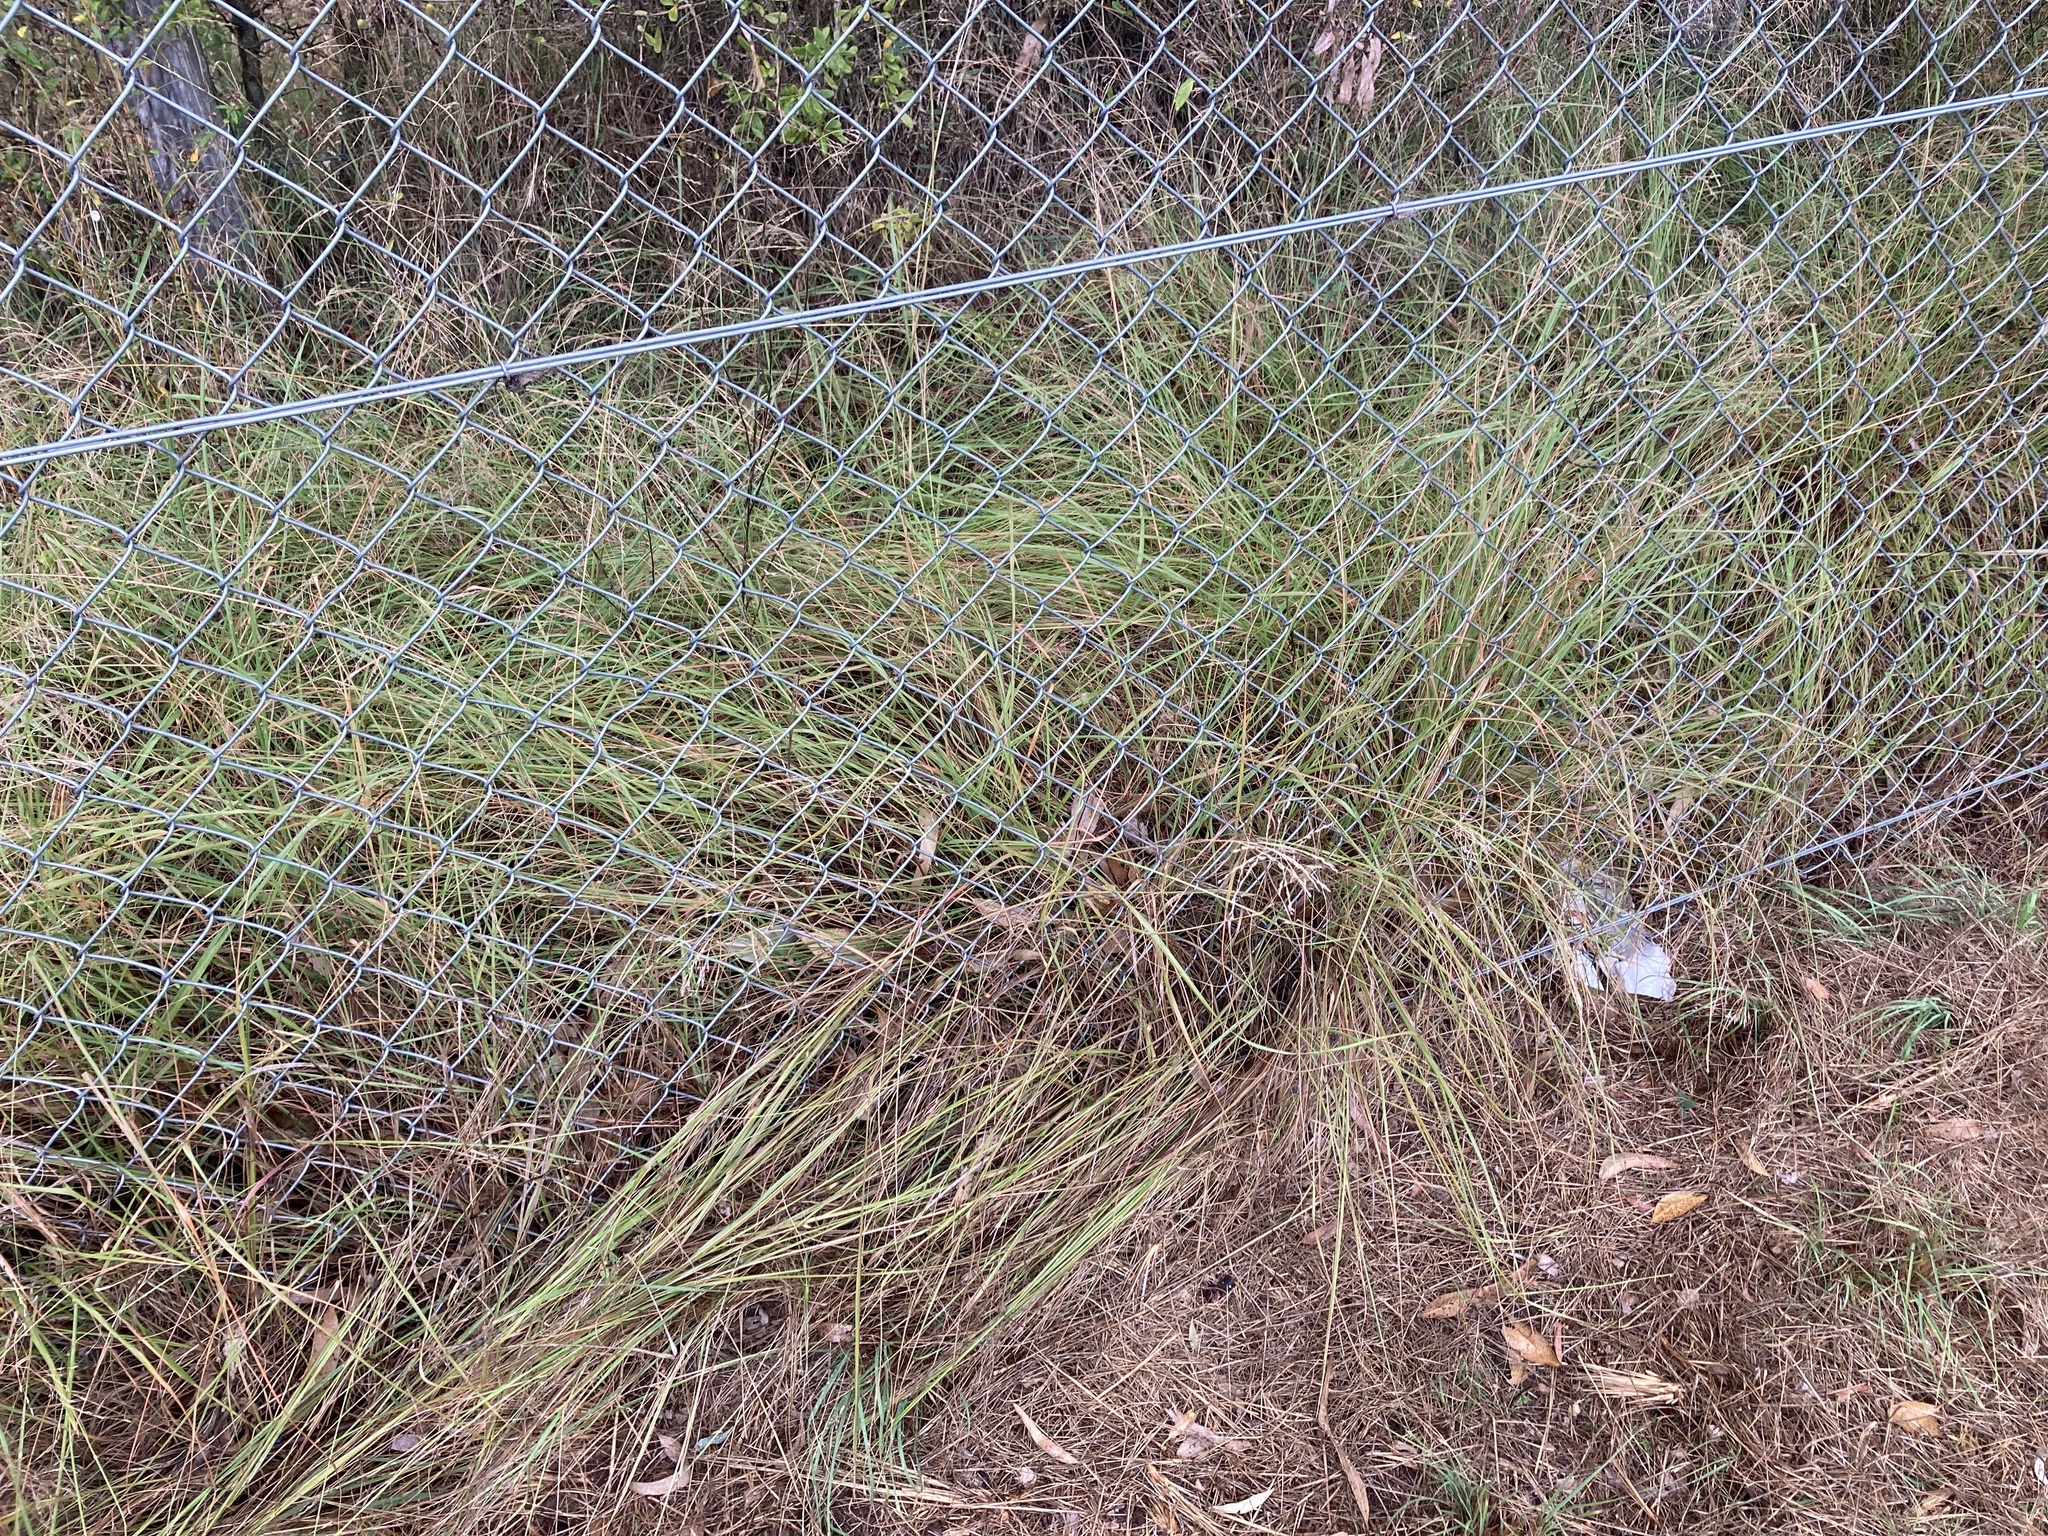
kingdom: Plantae
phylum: Tracheophyta
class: Liliopsida
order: Poales
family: Poaceae
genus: Eragrostis
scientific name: Eragrostis curvula
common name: African love-grass
